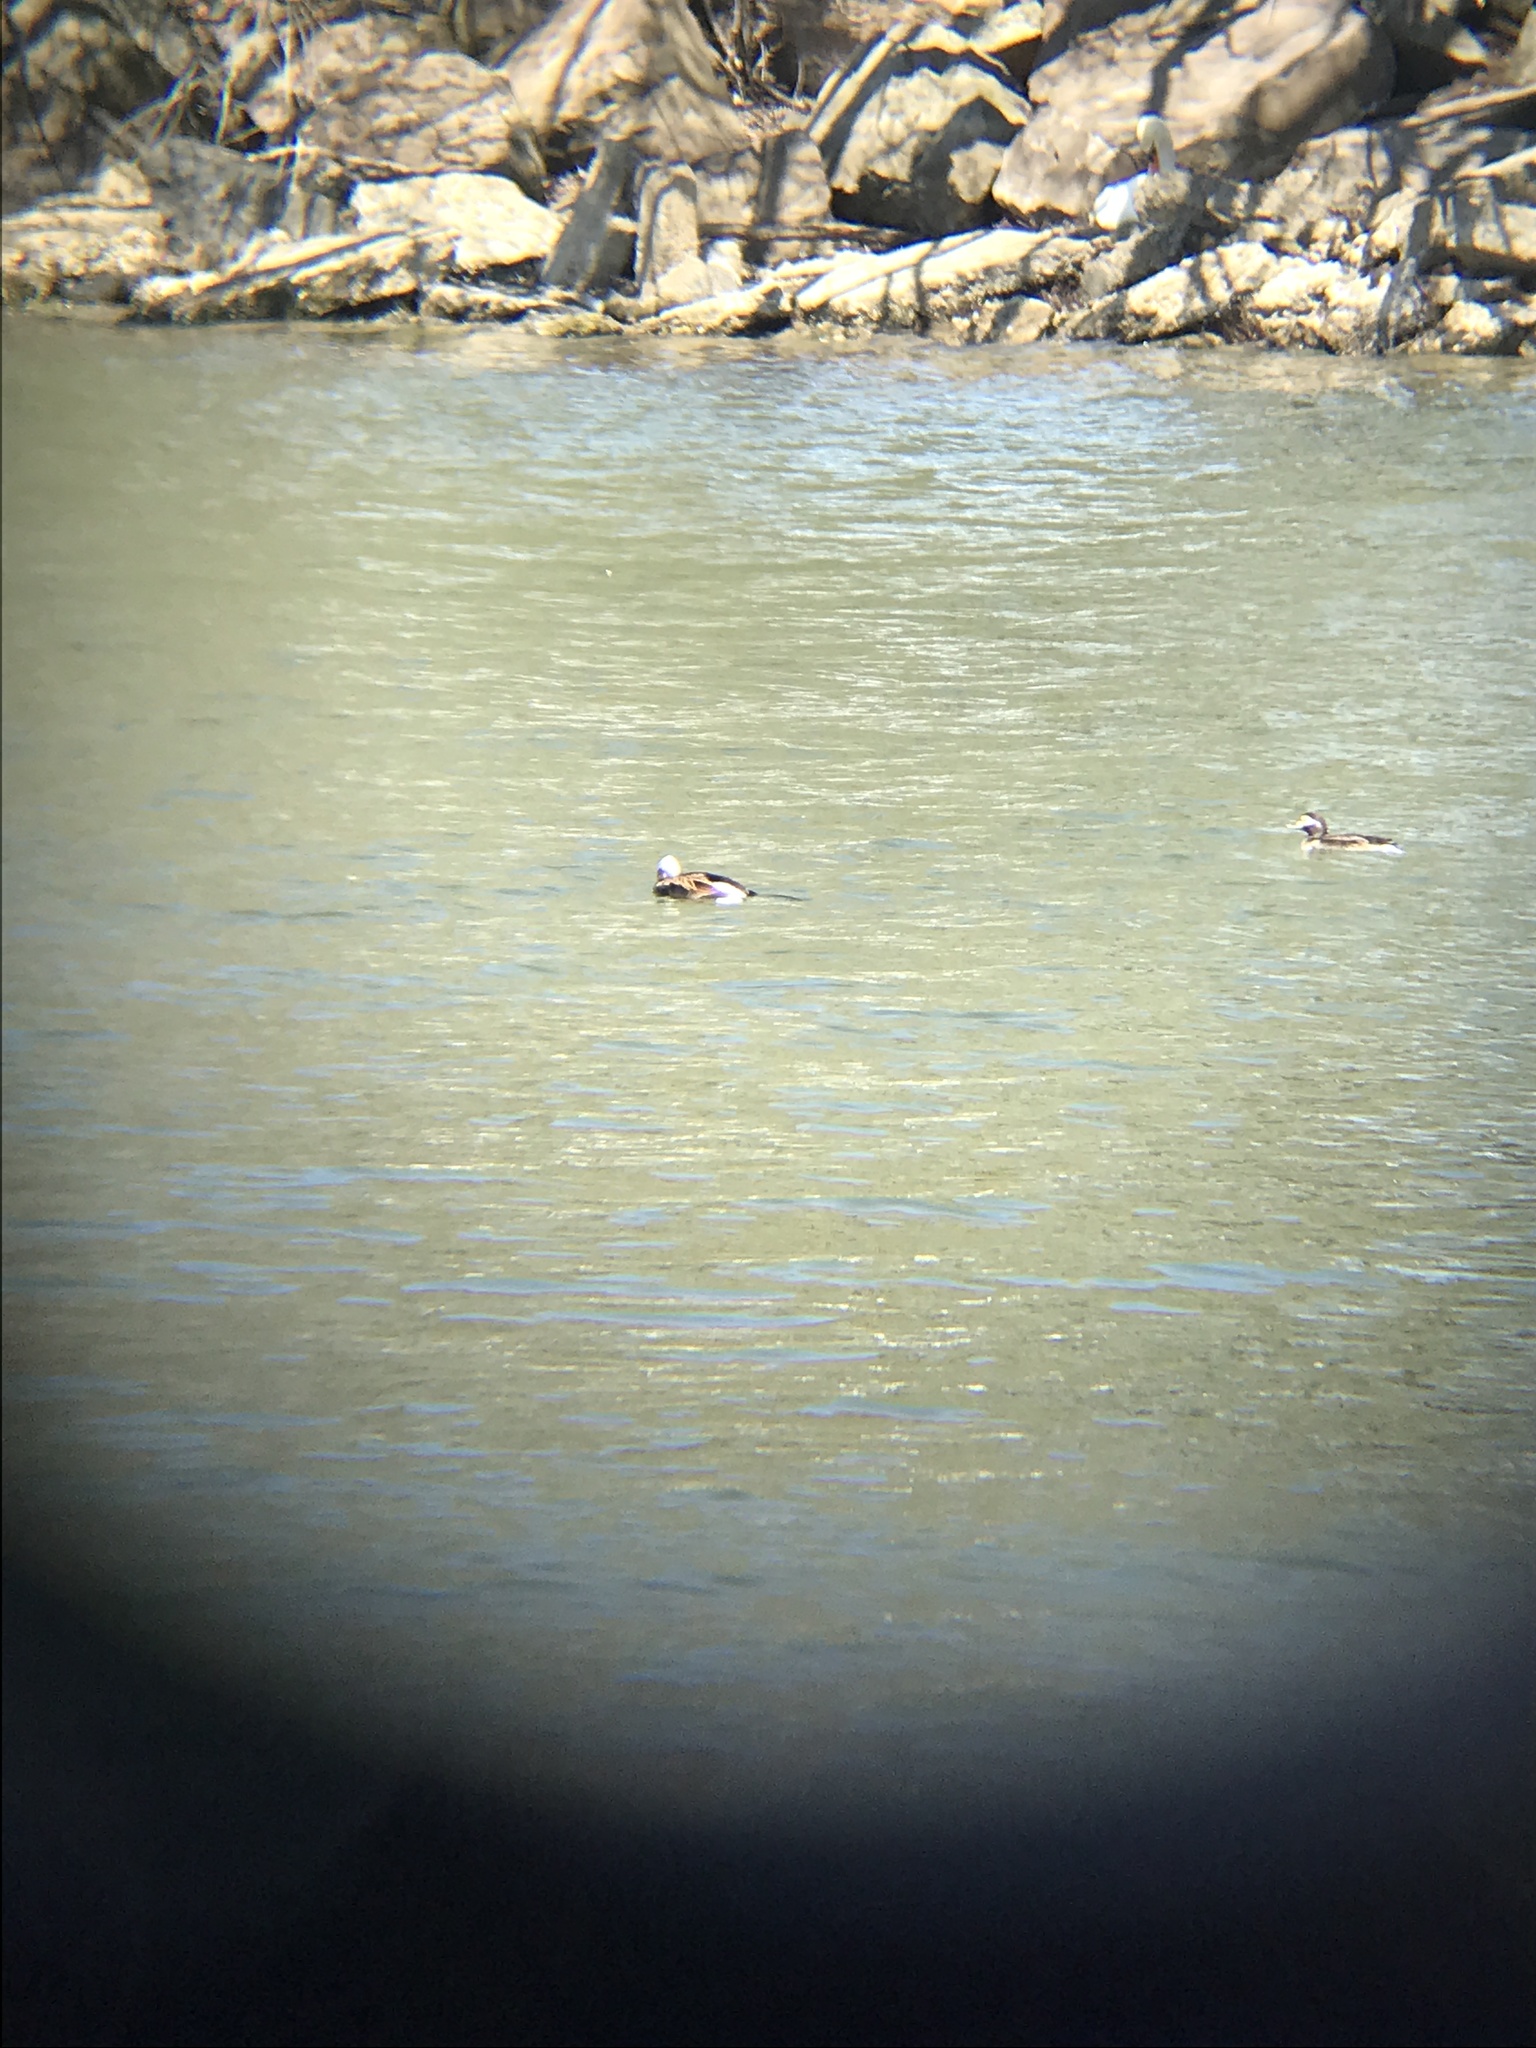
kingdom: Animalia
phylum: Chordata
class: Aves
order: Anseriformes
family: Anatidae
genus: Clangula
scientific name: Clangula hyemalis
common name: Long-tailed duck
